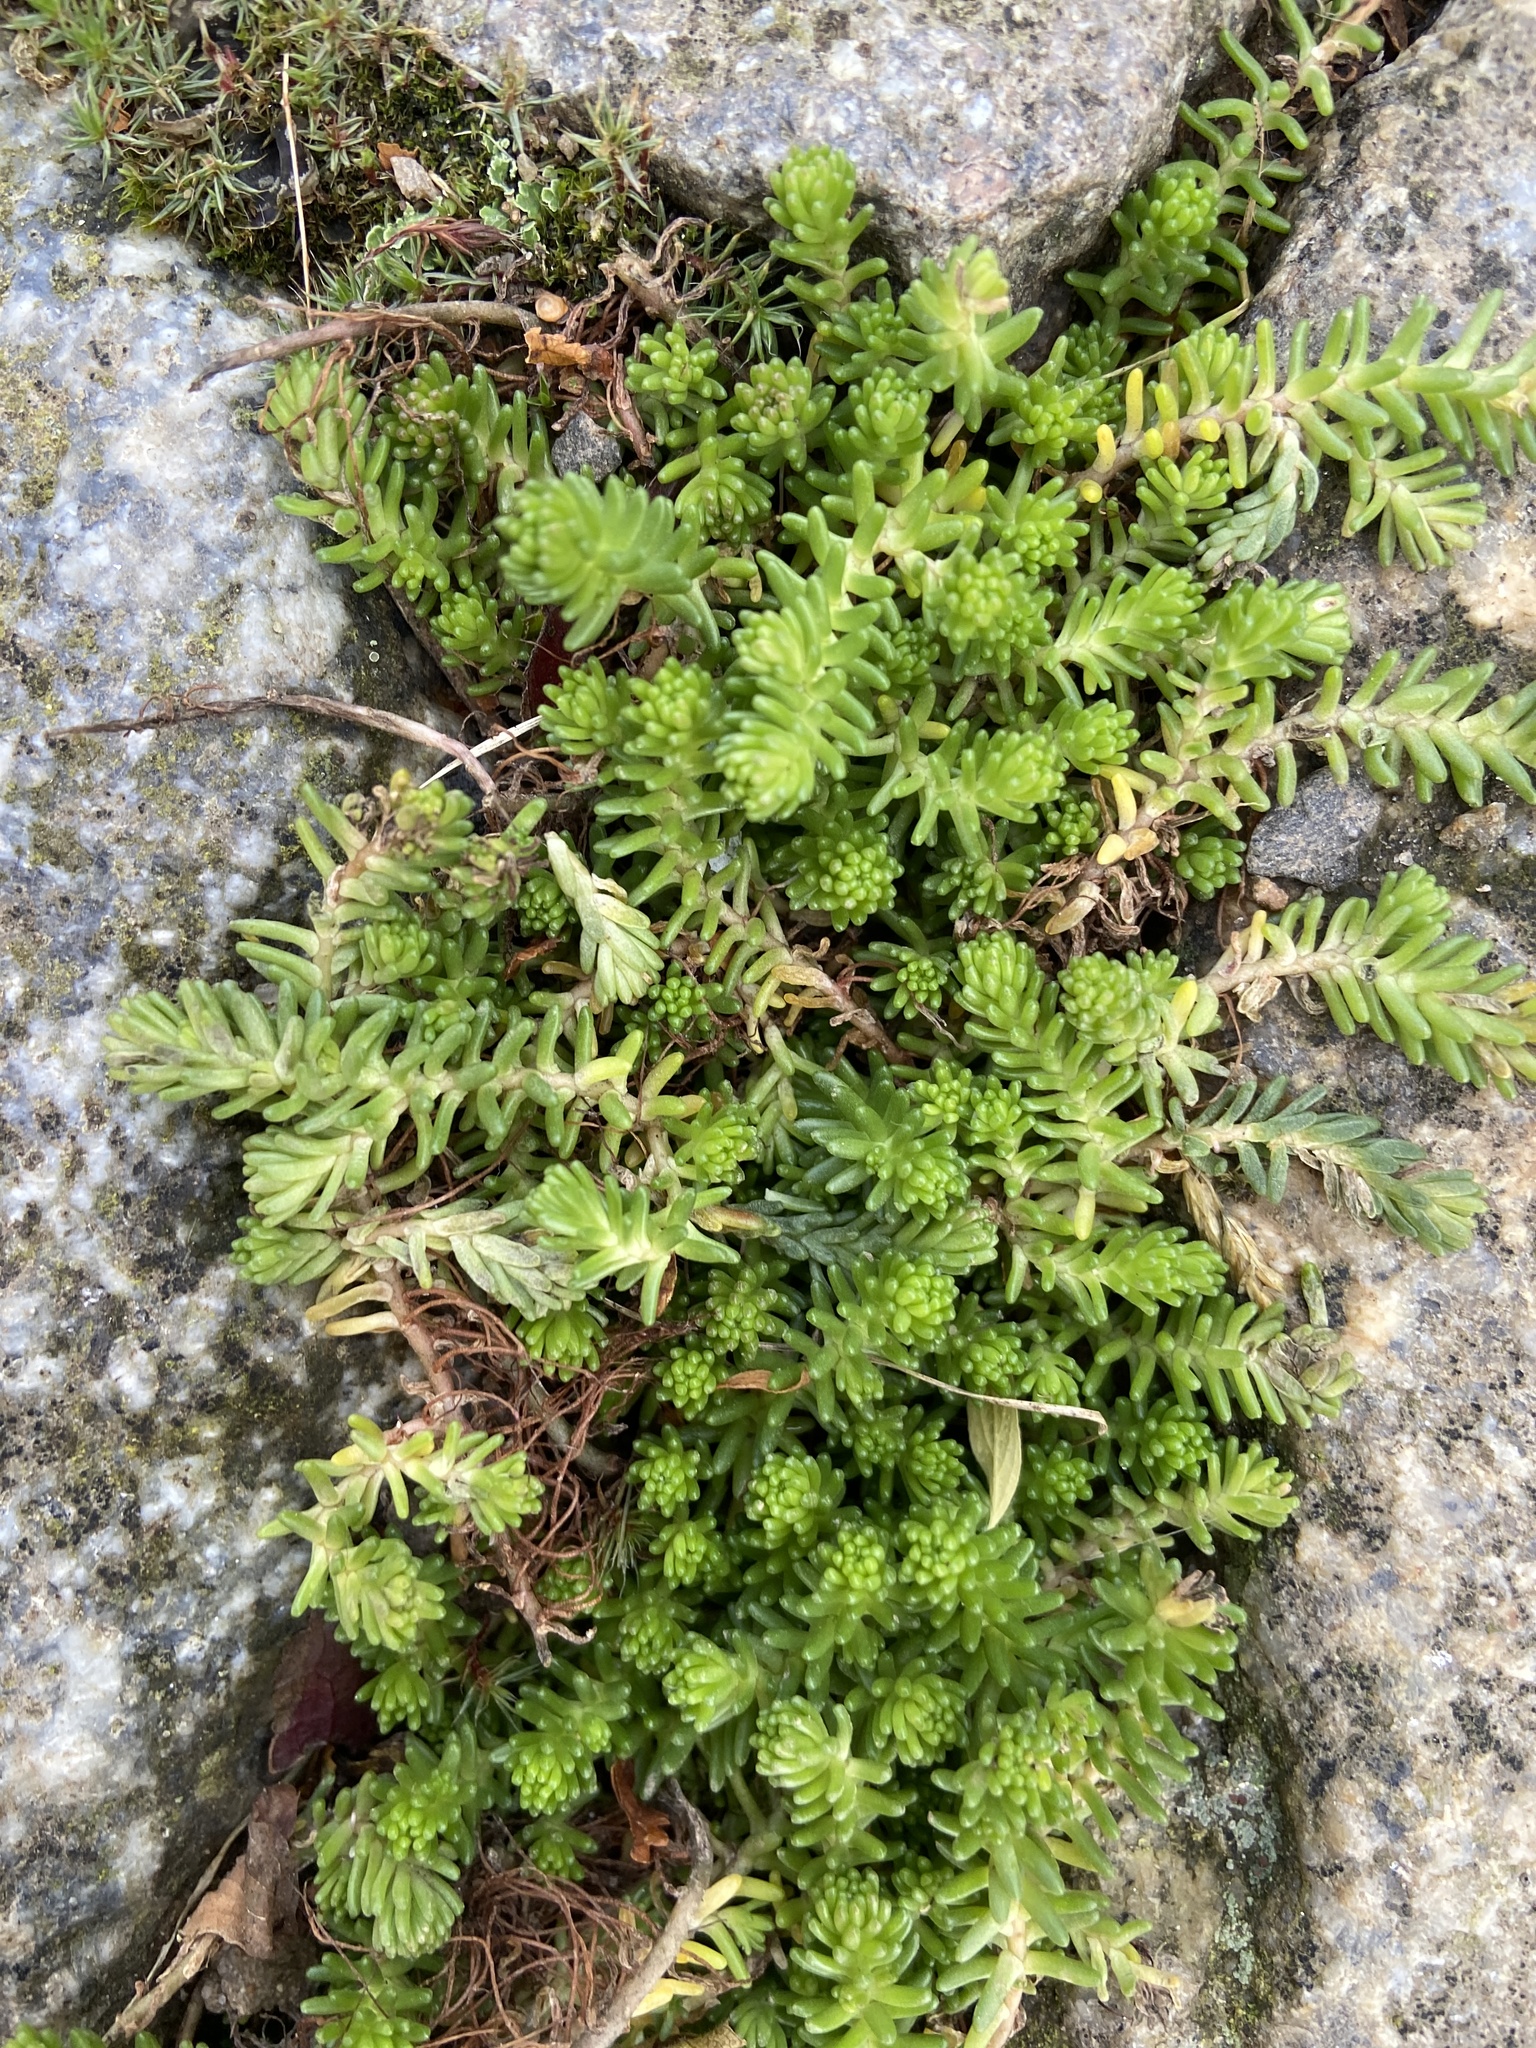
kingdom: Plantae
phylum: Tracheophyta
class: Magnoliopsida
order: Saxifragales
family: Crassulaceae
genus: Sedum
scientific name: Sedum sexangulare
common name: Tasteless stonecrop
